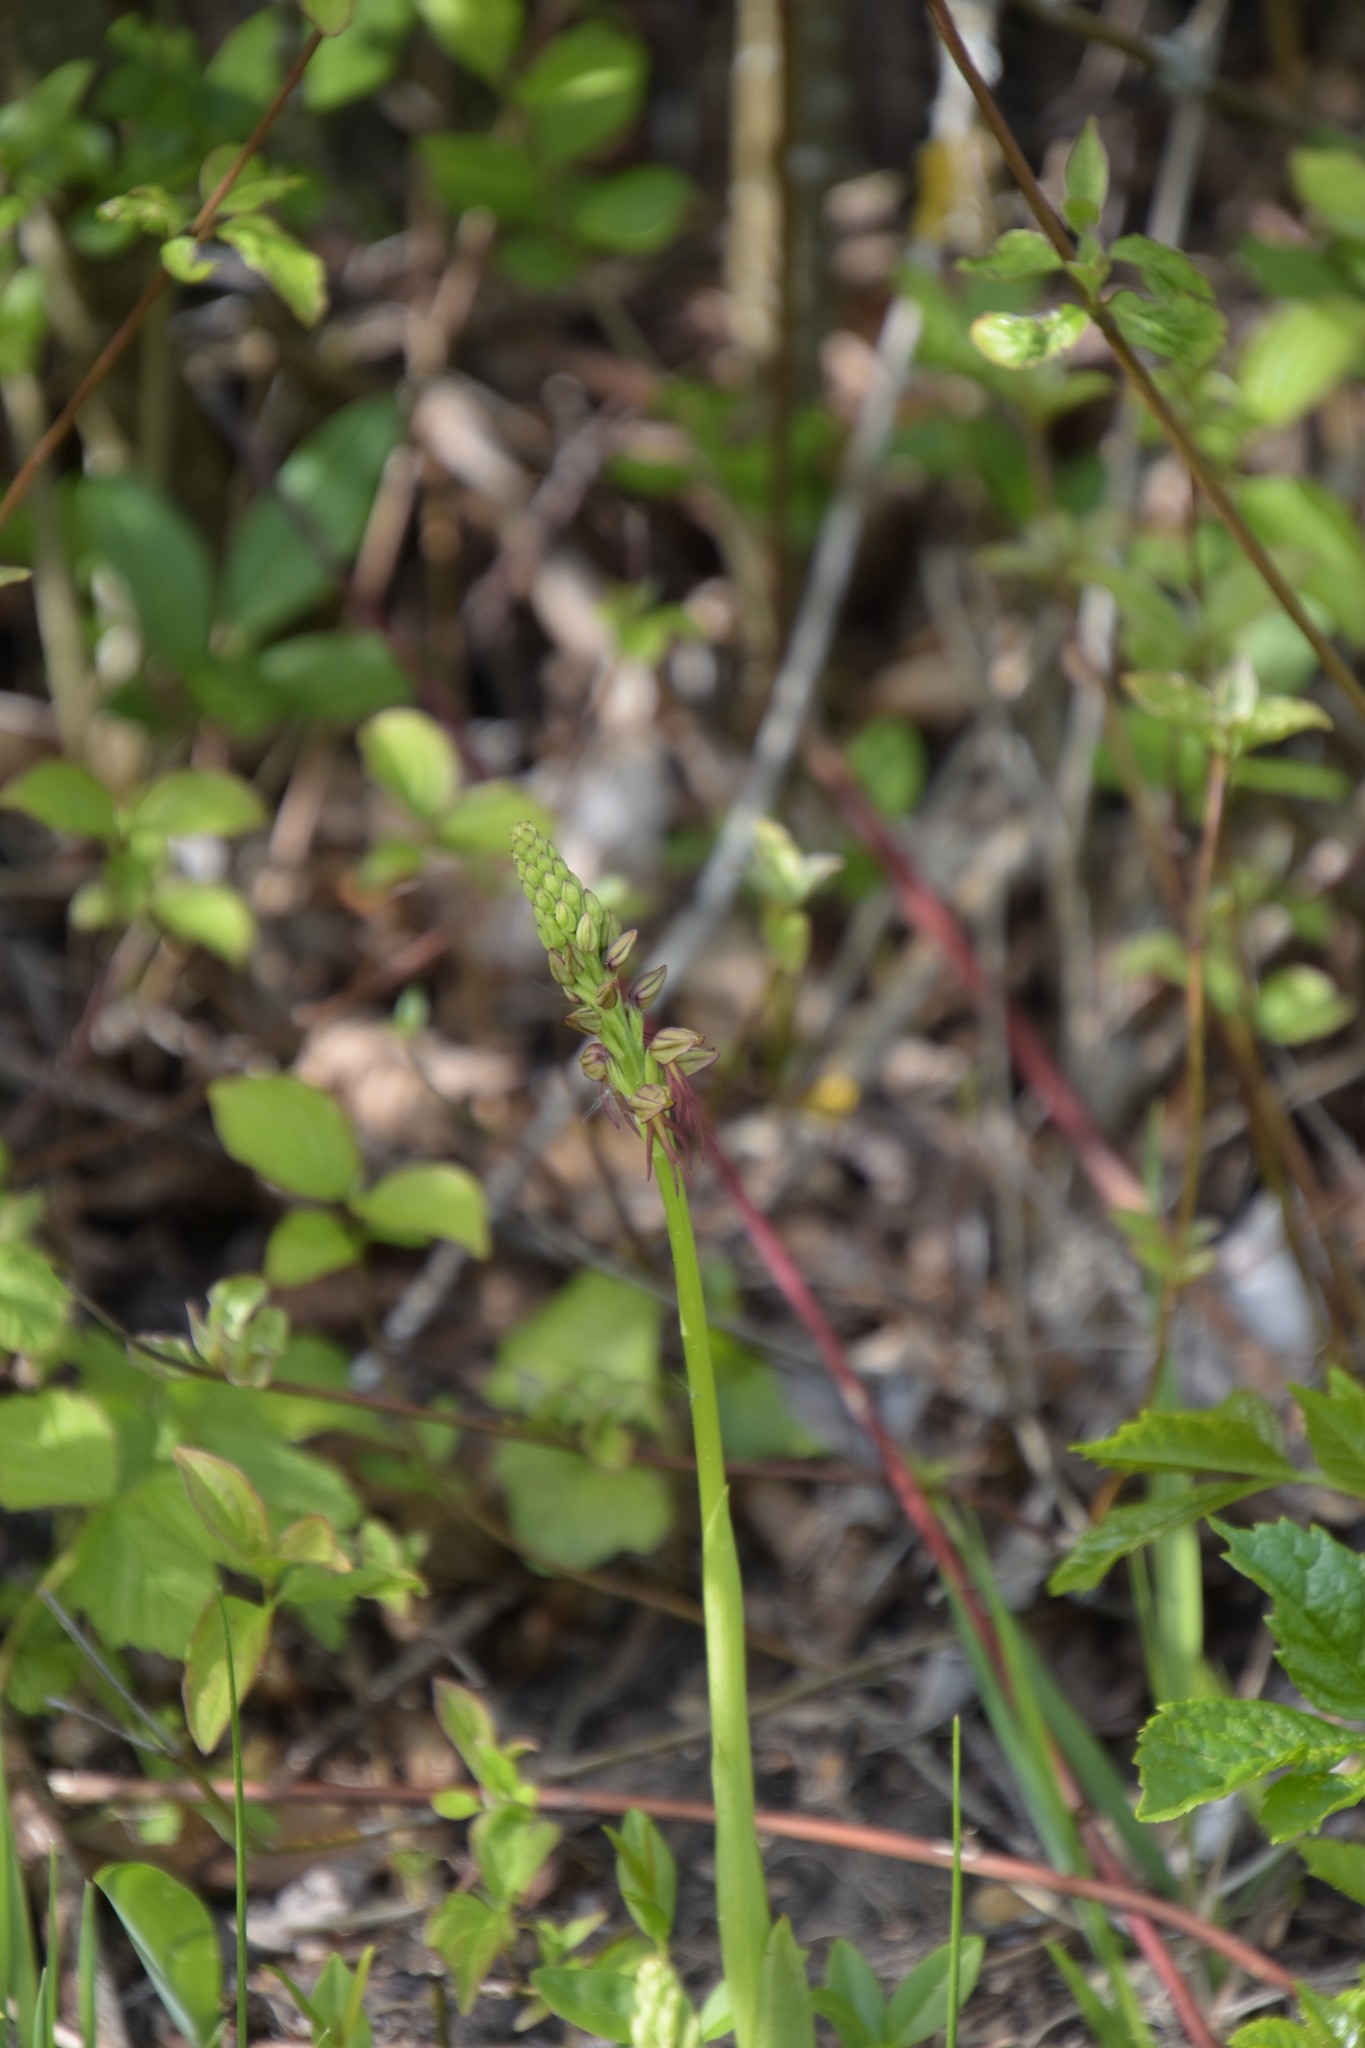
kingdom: Plantae
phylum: Tracheophyta
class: Liliopsida
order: Asparagales
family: Orchidaceae
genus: Orchis
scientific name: Orchis anthropophora
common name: Man orchid
